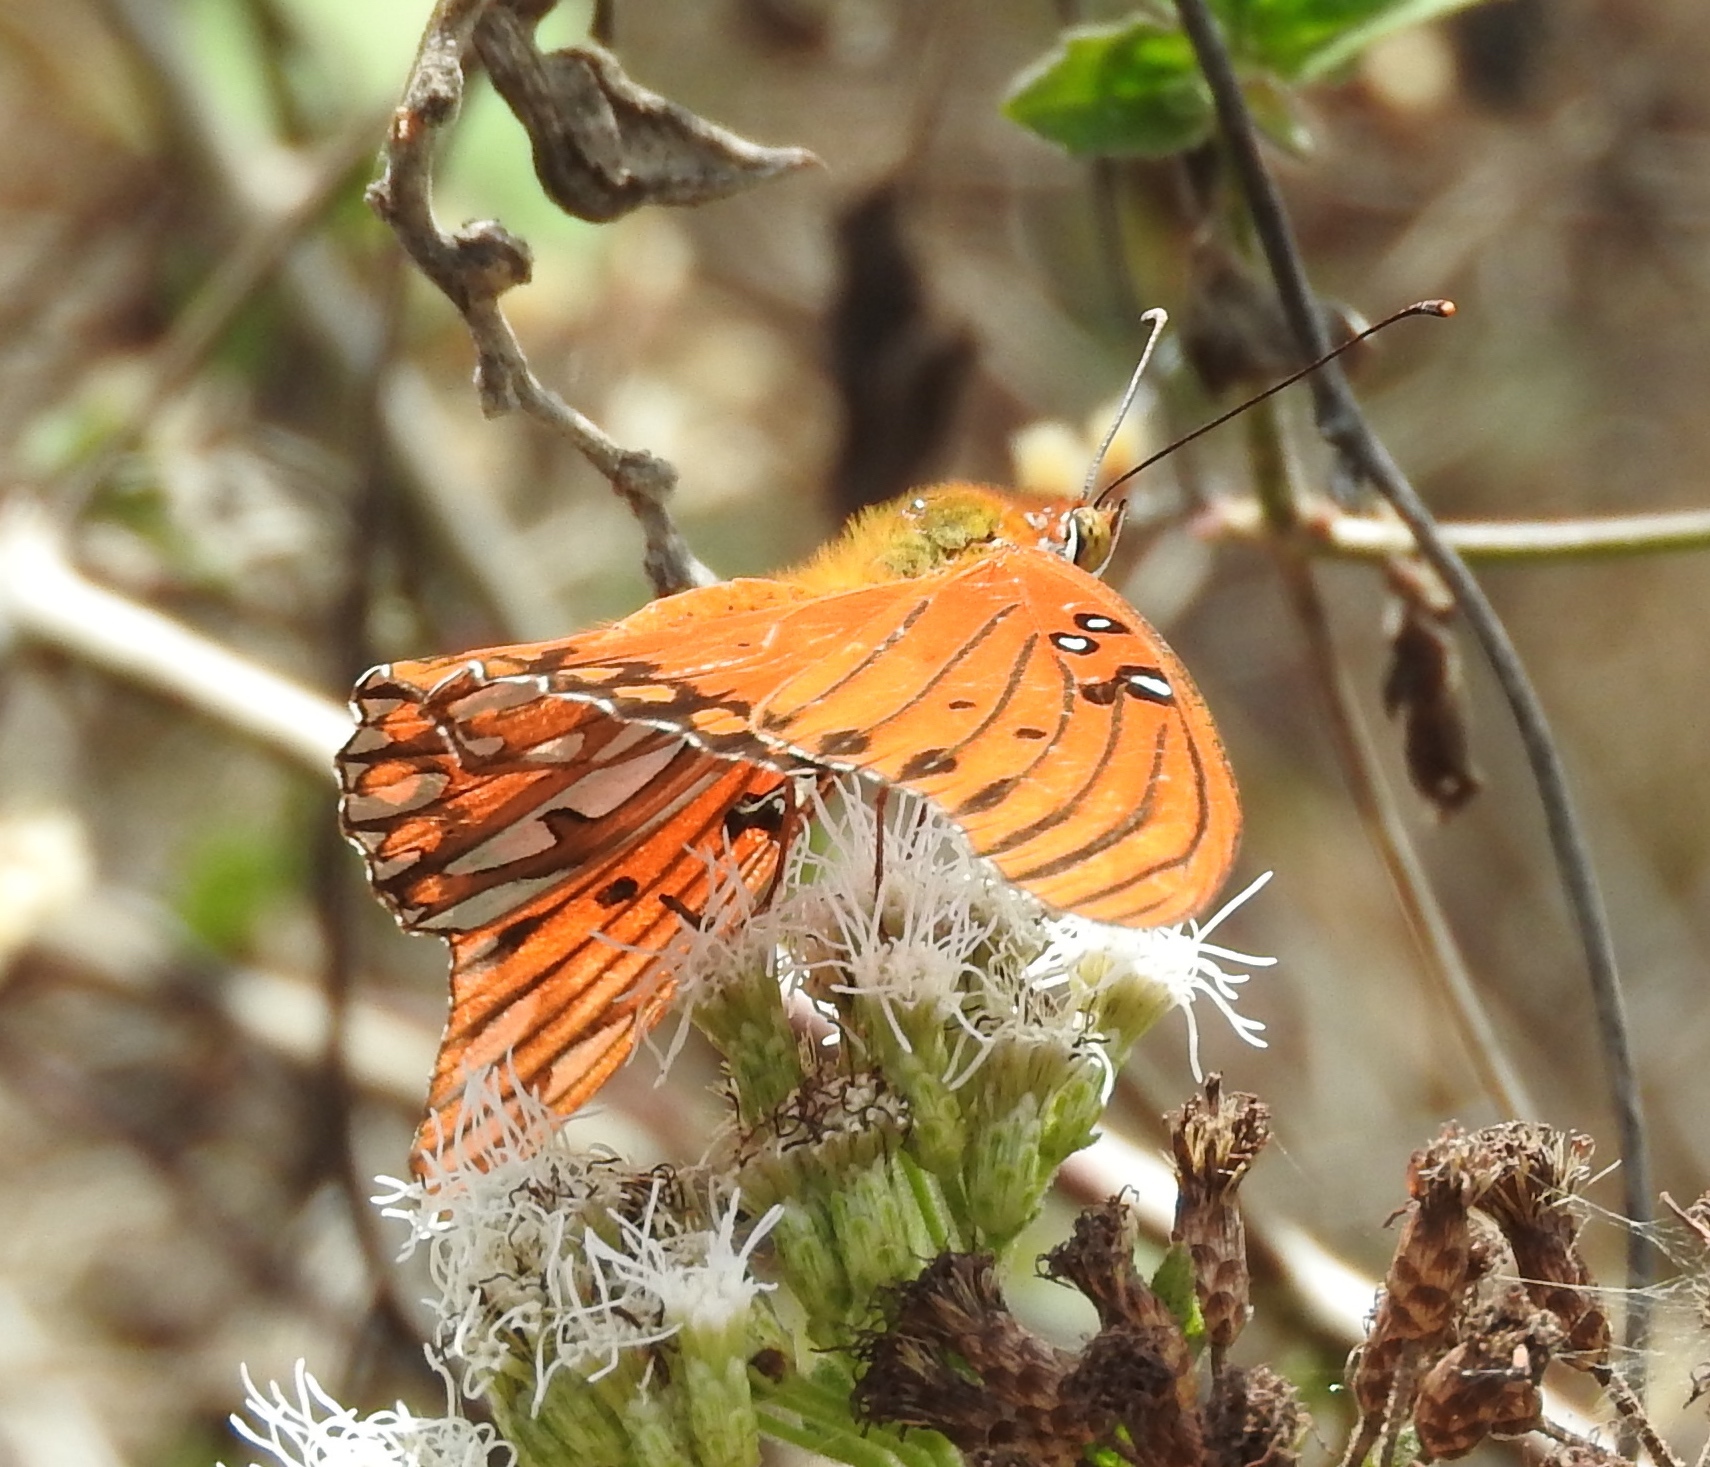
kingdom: Animalia
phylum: Arthropoda
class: Insecta
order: Lepidoptera
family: Nymphalidae
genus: Dione
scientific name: Dione vanillae
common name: Gulf fritillary
